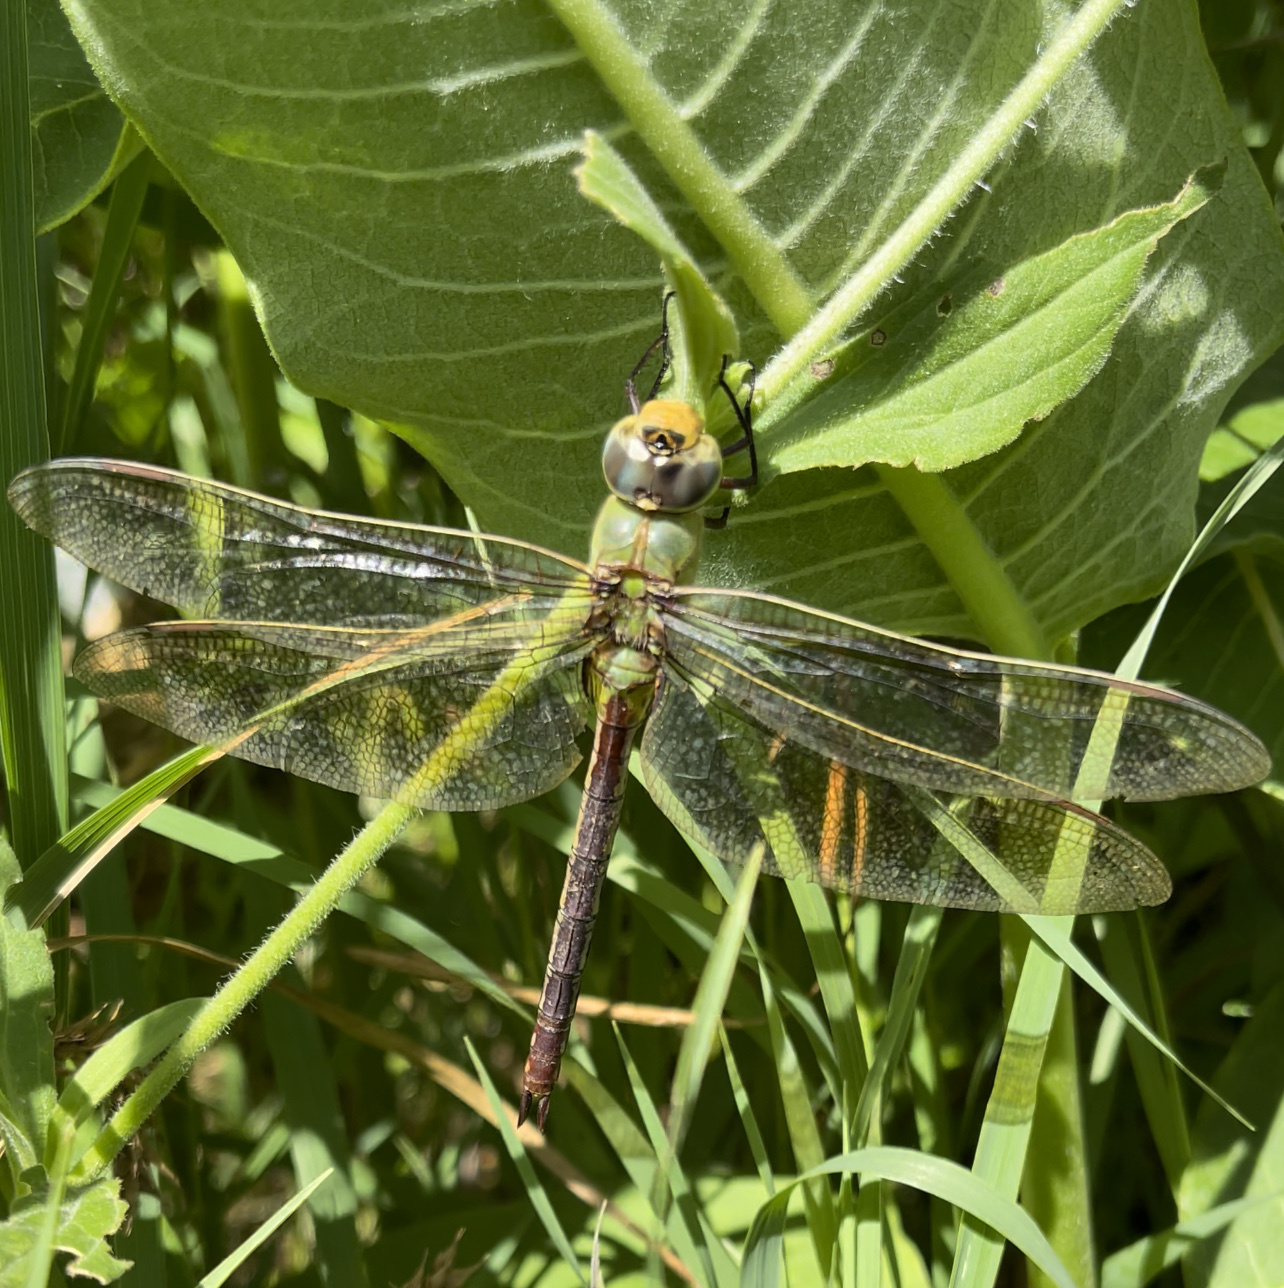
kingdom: Animalia
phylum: Arthropoda
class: Insecta
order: Odonata
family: Aeshnidae
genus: Anax
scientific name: Anax junius
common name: Common green darner
